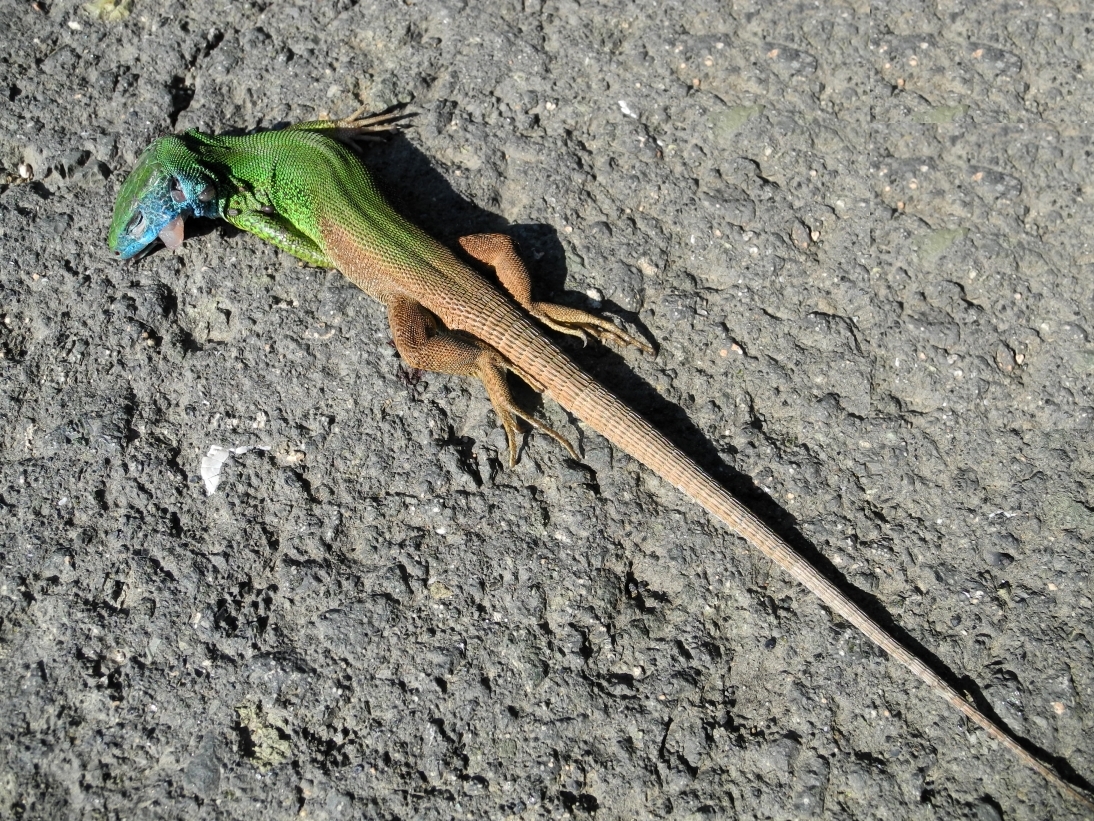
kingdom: Animalia
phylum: Chordata
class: Squamata
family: Lacertidae
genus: Lacerta
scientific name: Lacerta viridis
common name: European green lizard
